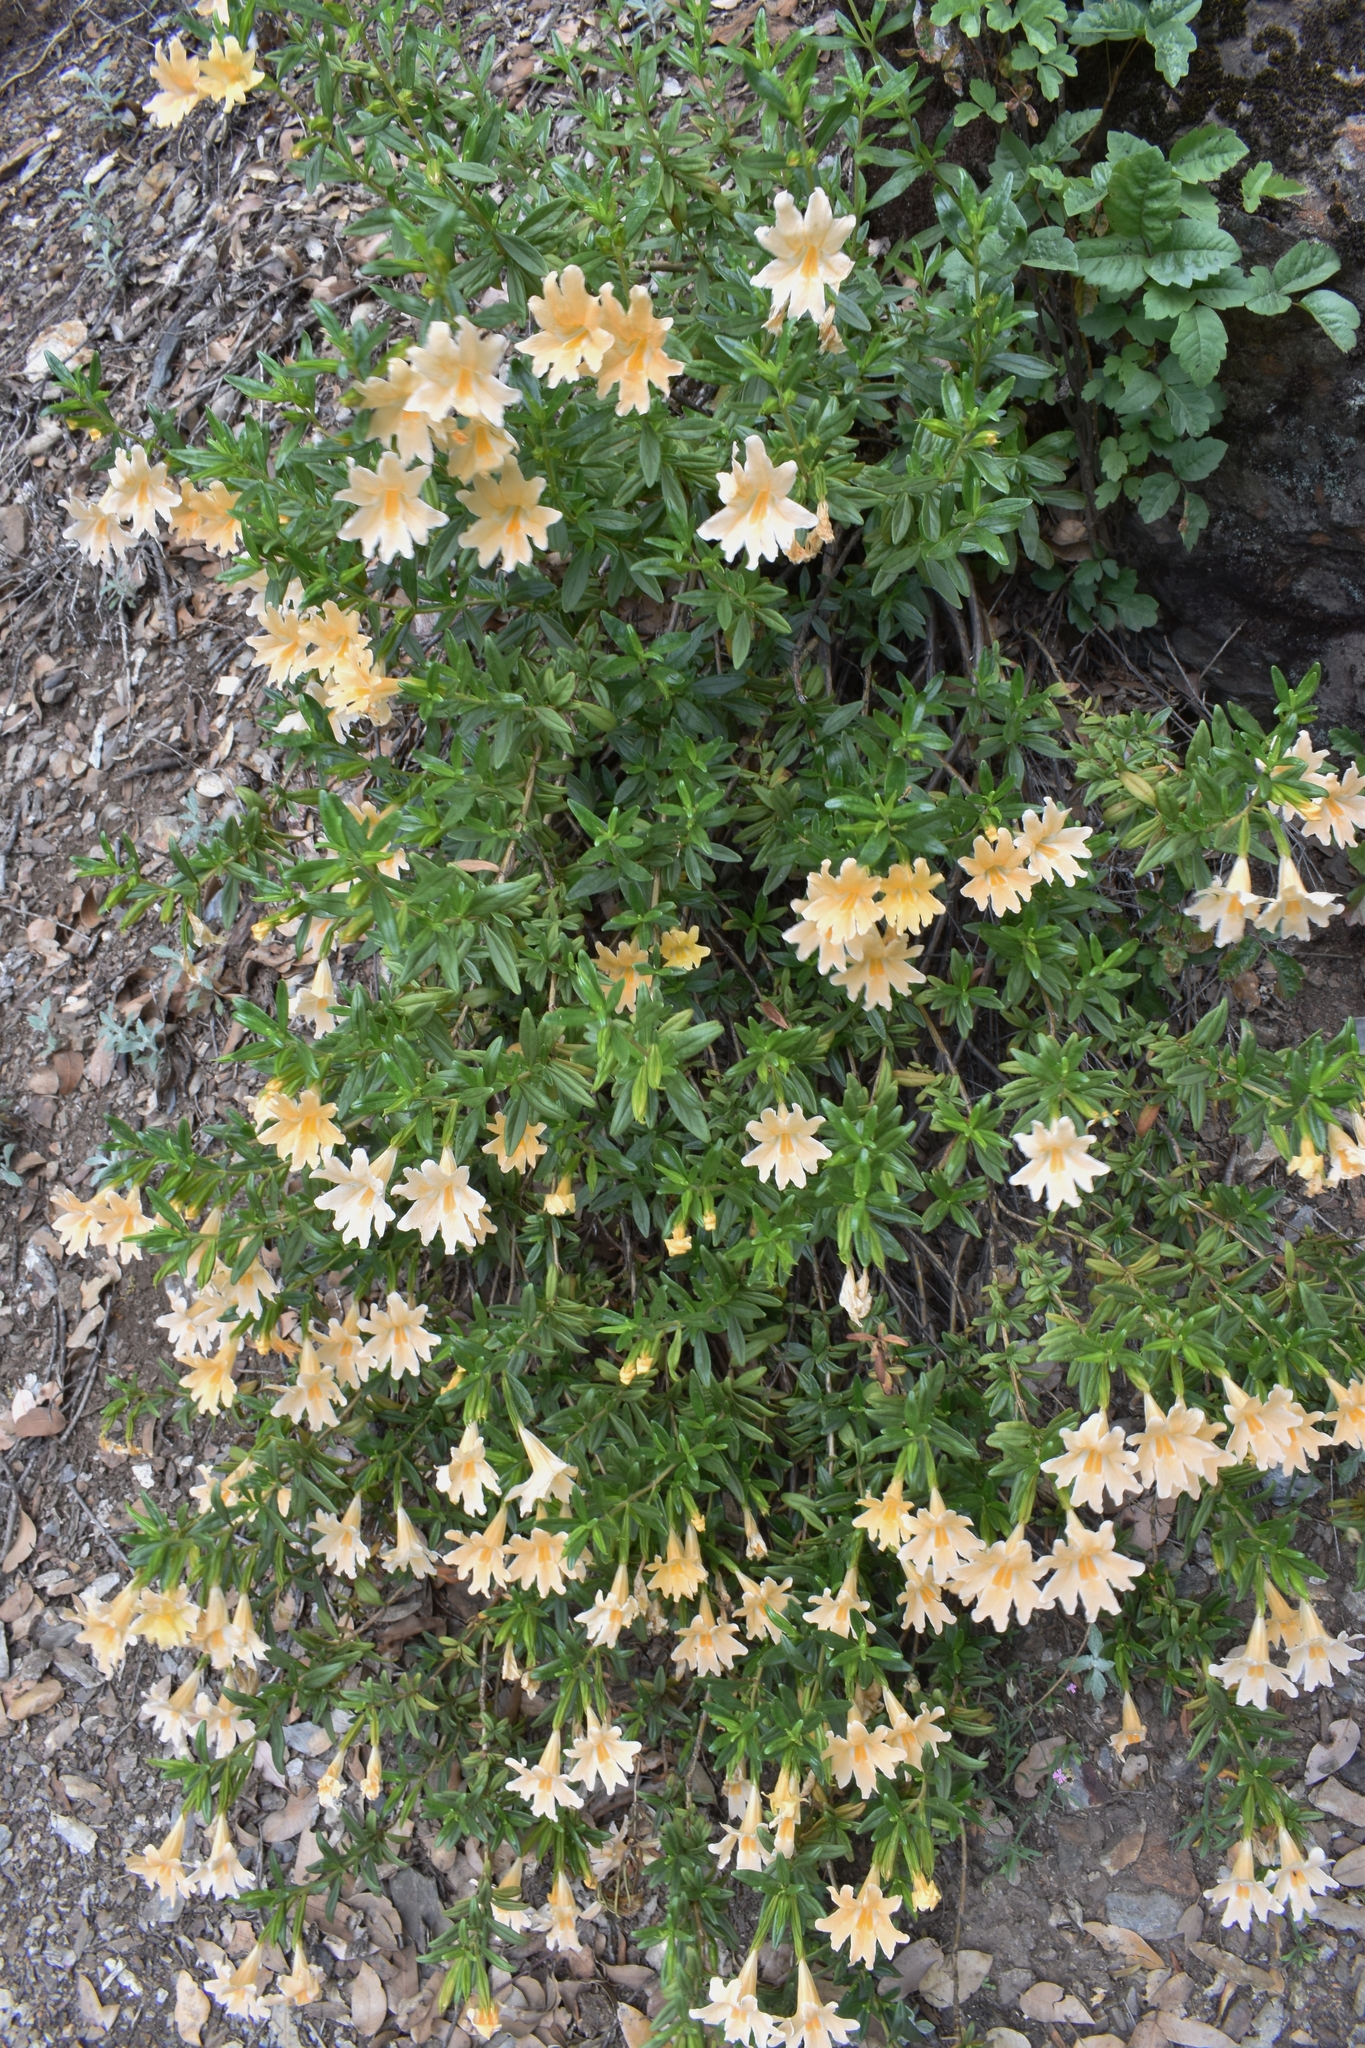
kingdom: Plantae
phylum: Tracheophyta
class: Magnoliopsida
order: Lamiales
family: Phrymaceae
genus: Diplacus
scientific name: Diplacus grandiflorus
